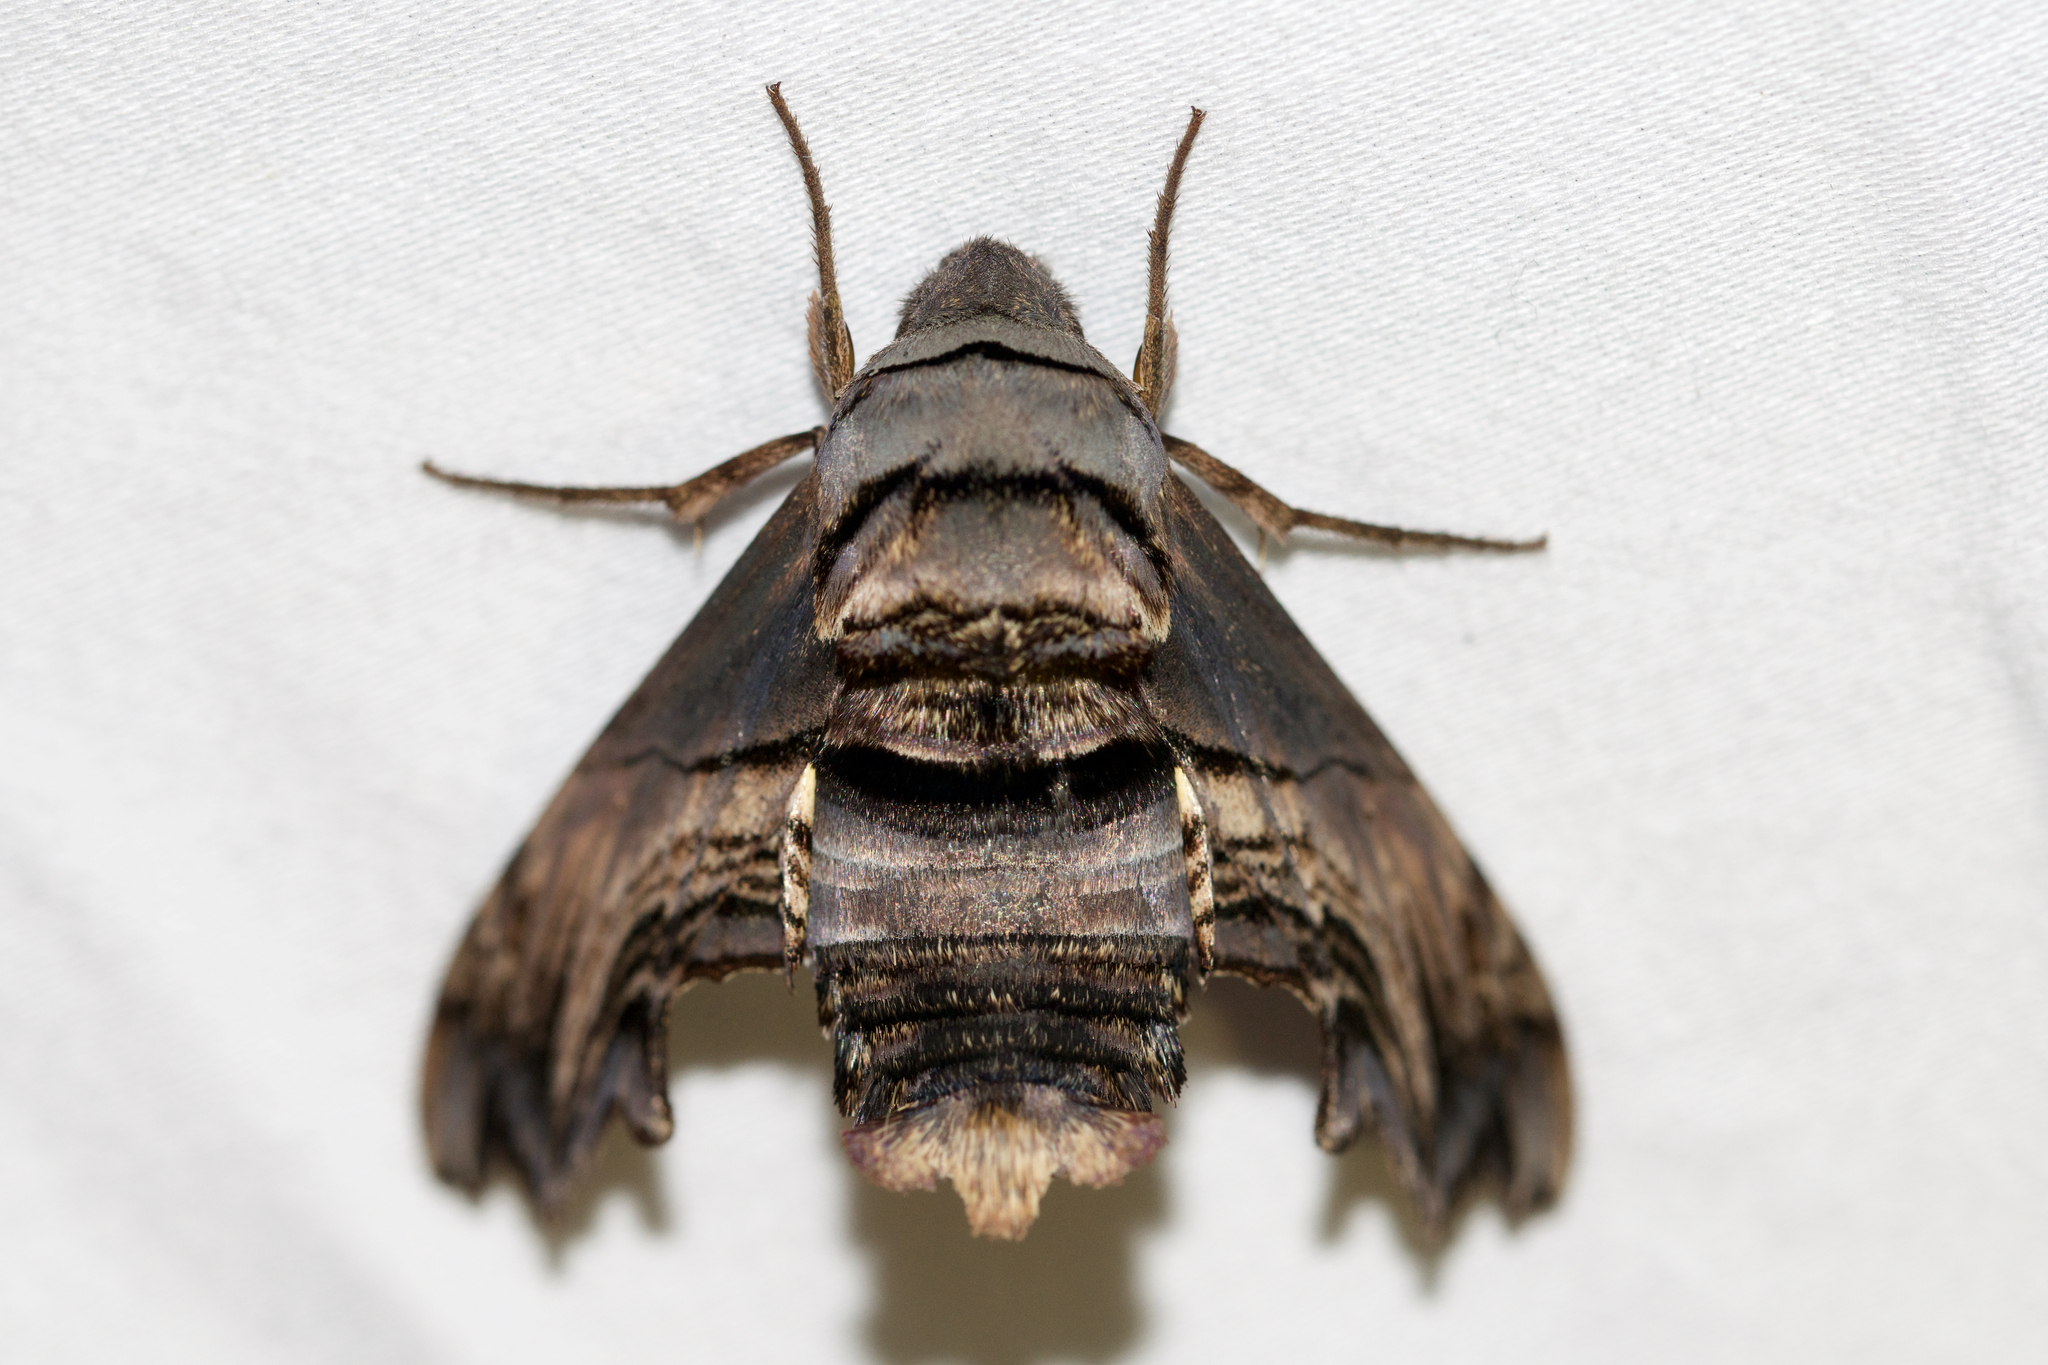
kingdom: Animalia
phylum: Arthropoda
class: Insecta
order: Lepidoptera
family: Sphingidae
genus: Sphecodina
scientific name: Sphecodina abbottii
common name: Abbott's sphinx
